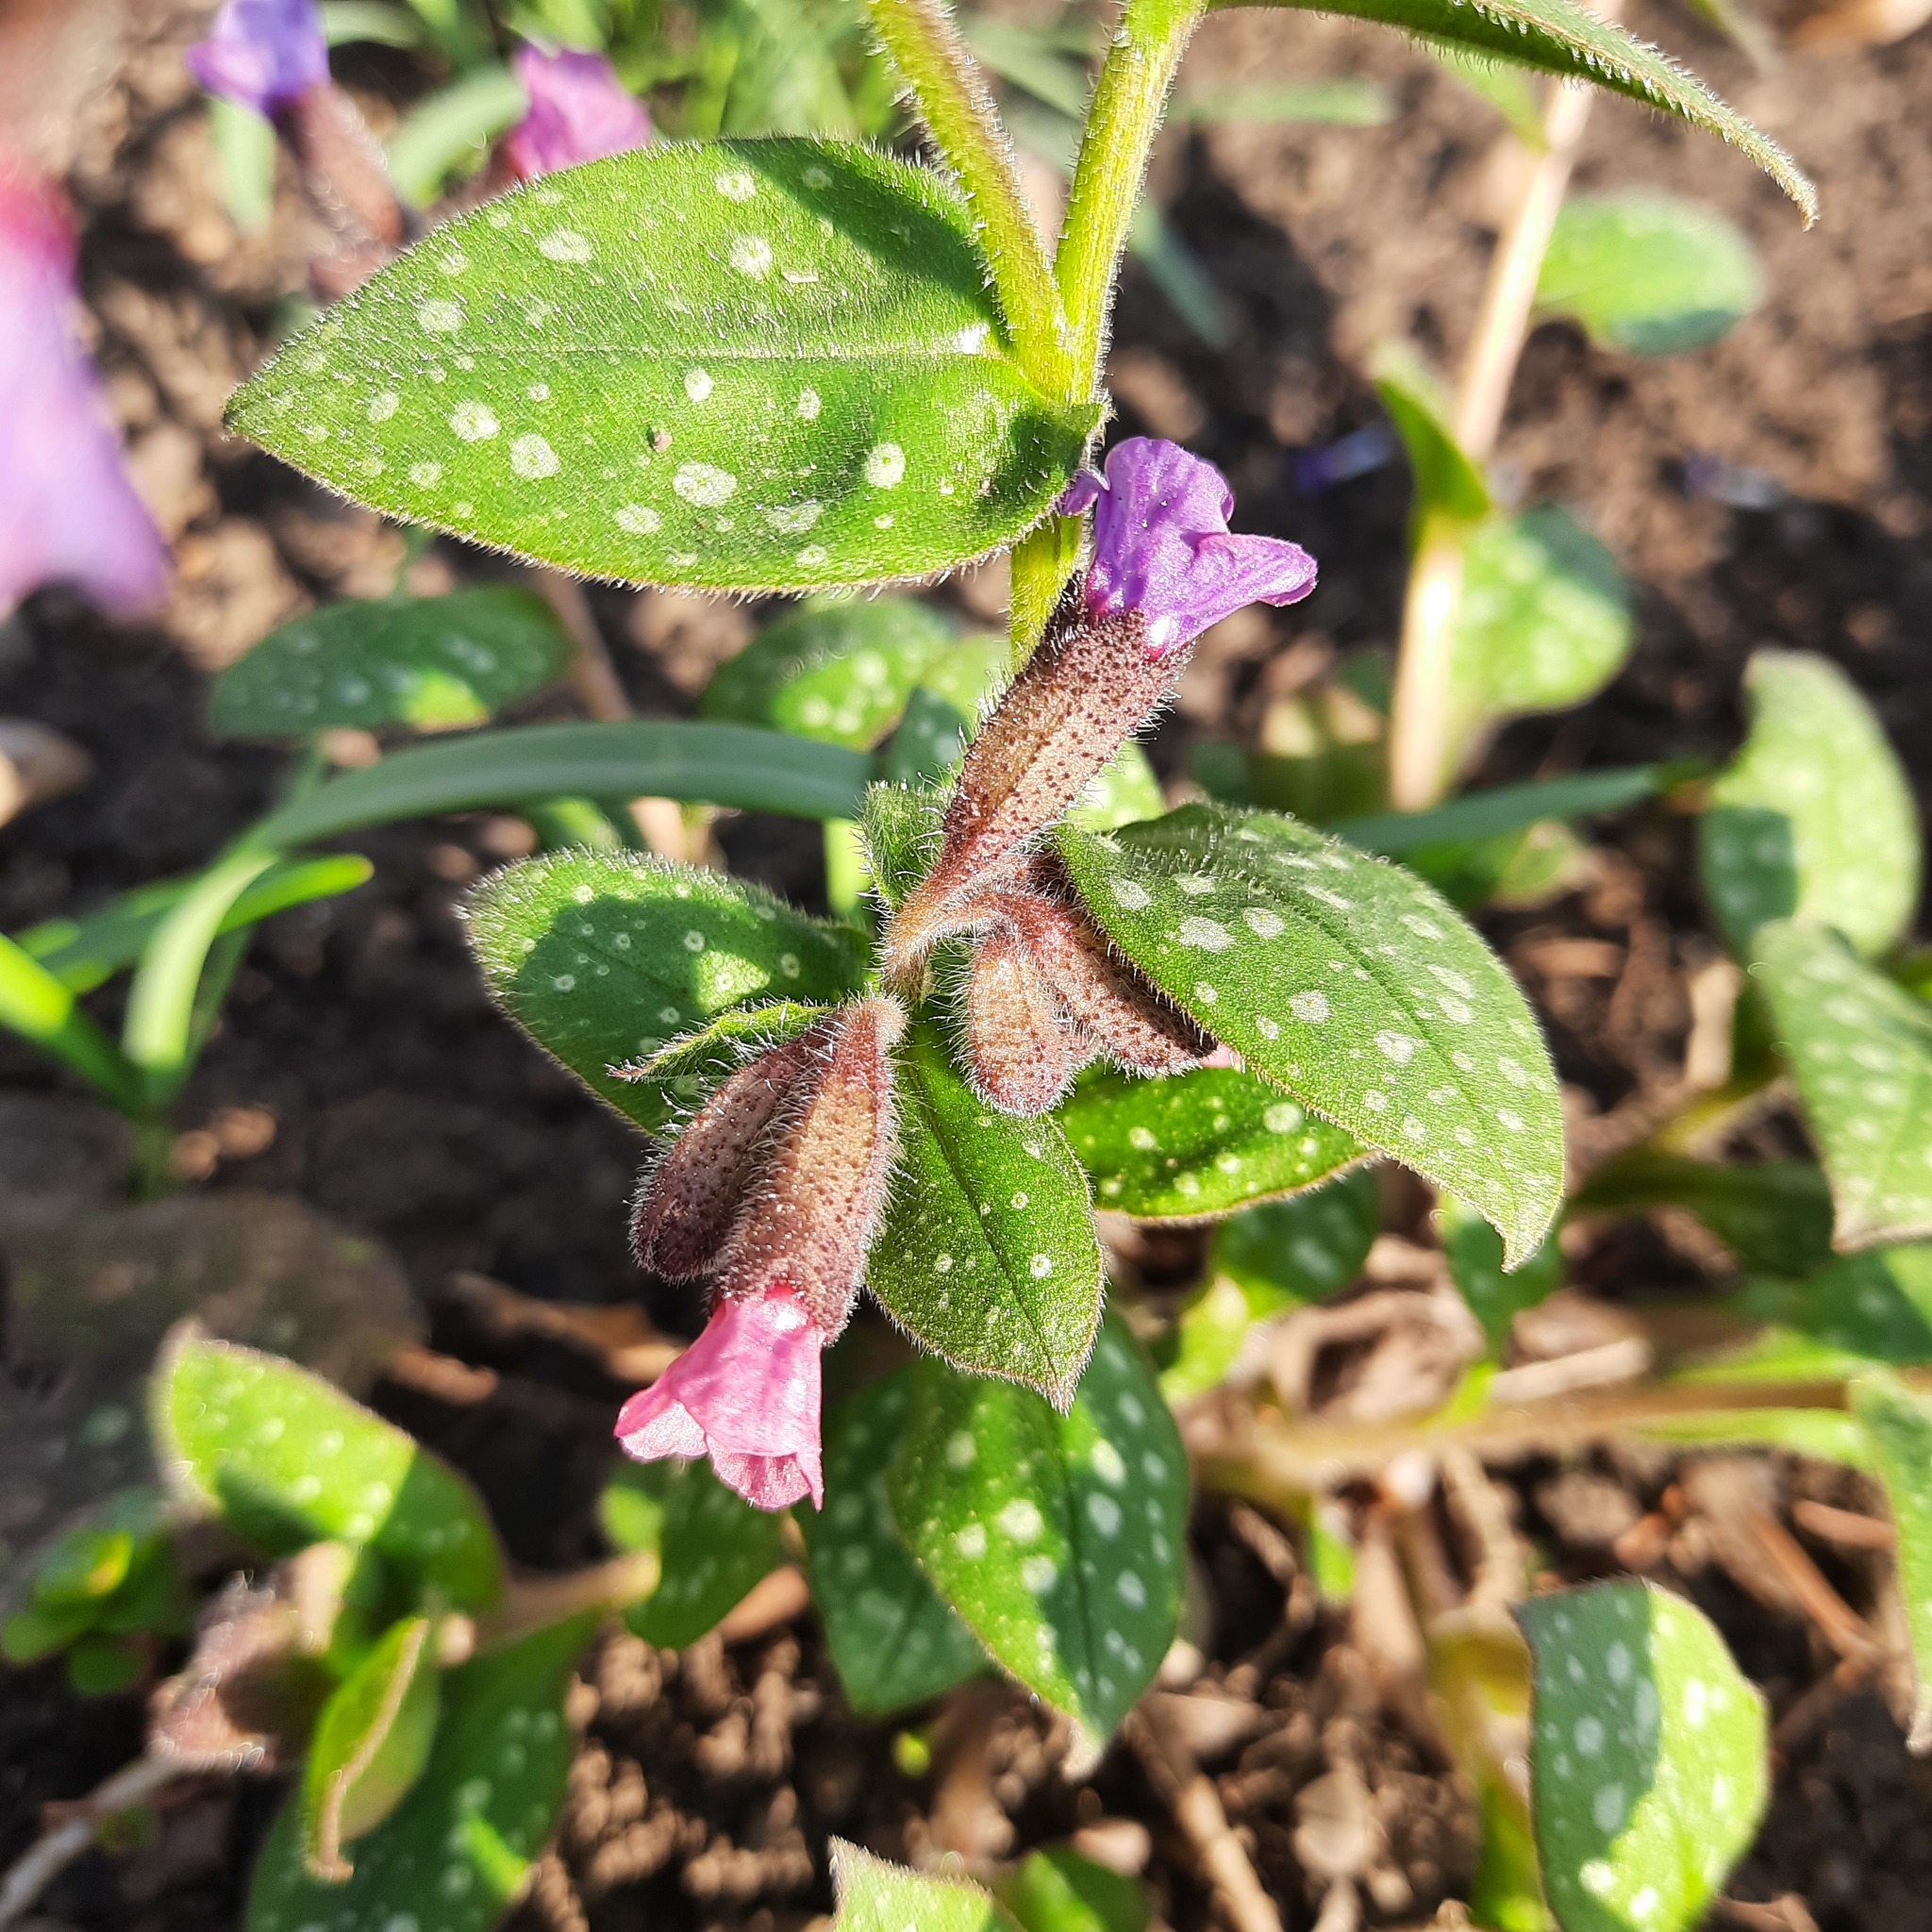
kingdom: Plantae
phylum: Tracheophyta
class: Magnoliopsida
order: Boraginales
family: Boraginaceae
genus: Pulmonaria
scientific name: Pulmonaria saccharata
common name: Bethlehem lungwort
